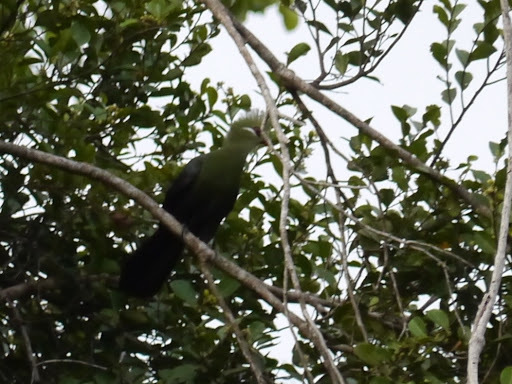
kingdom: Animalia
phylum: Chordata
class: Aves
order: Musophagiformes
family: Musophagidae
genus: Tauraco
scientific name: Tauraco macrorhynchus
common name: Yellow-billed turaco
